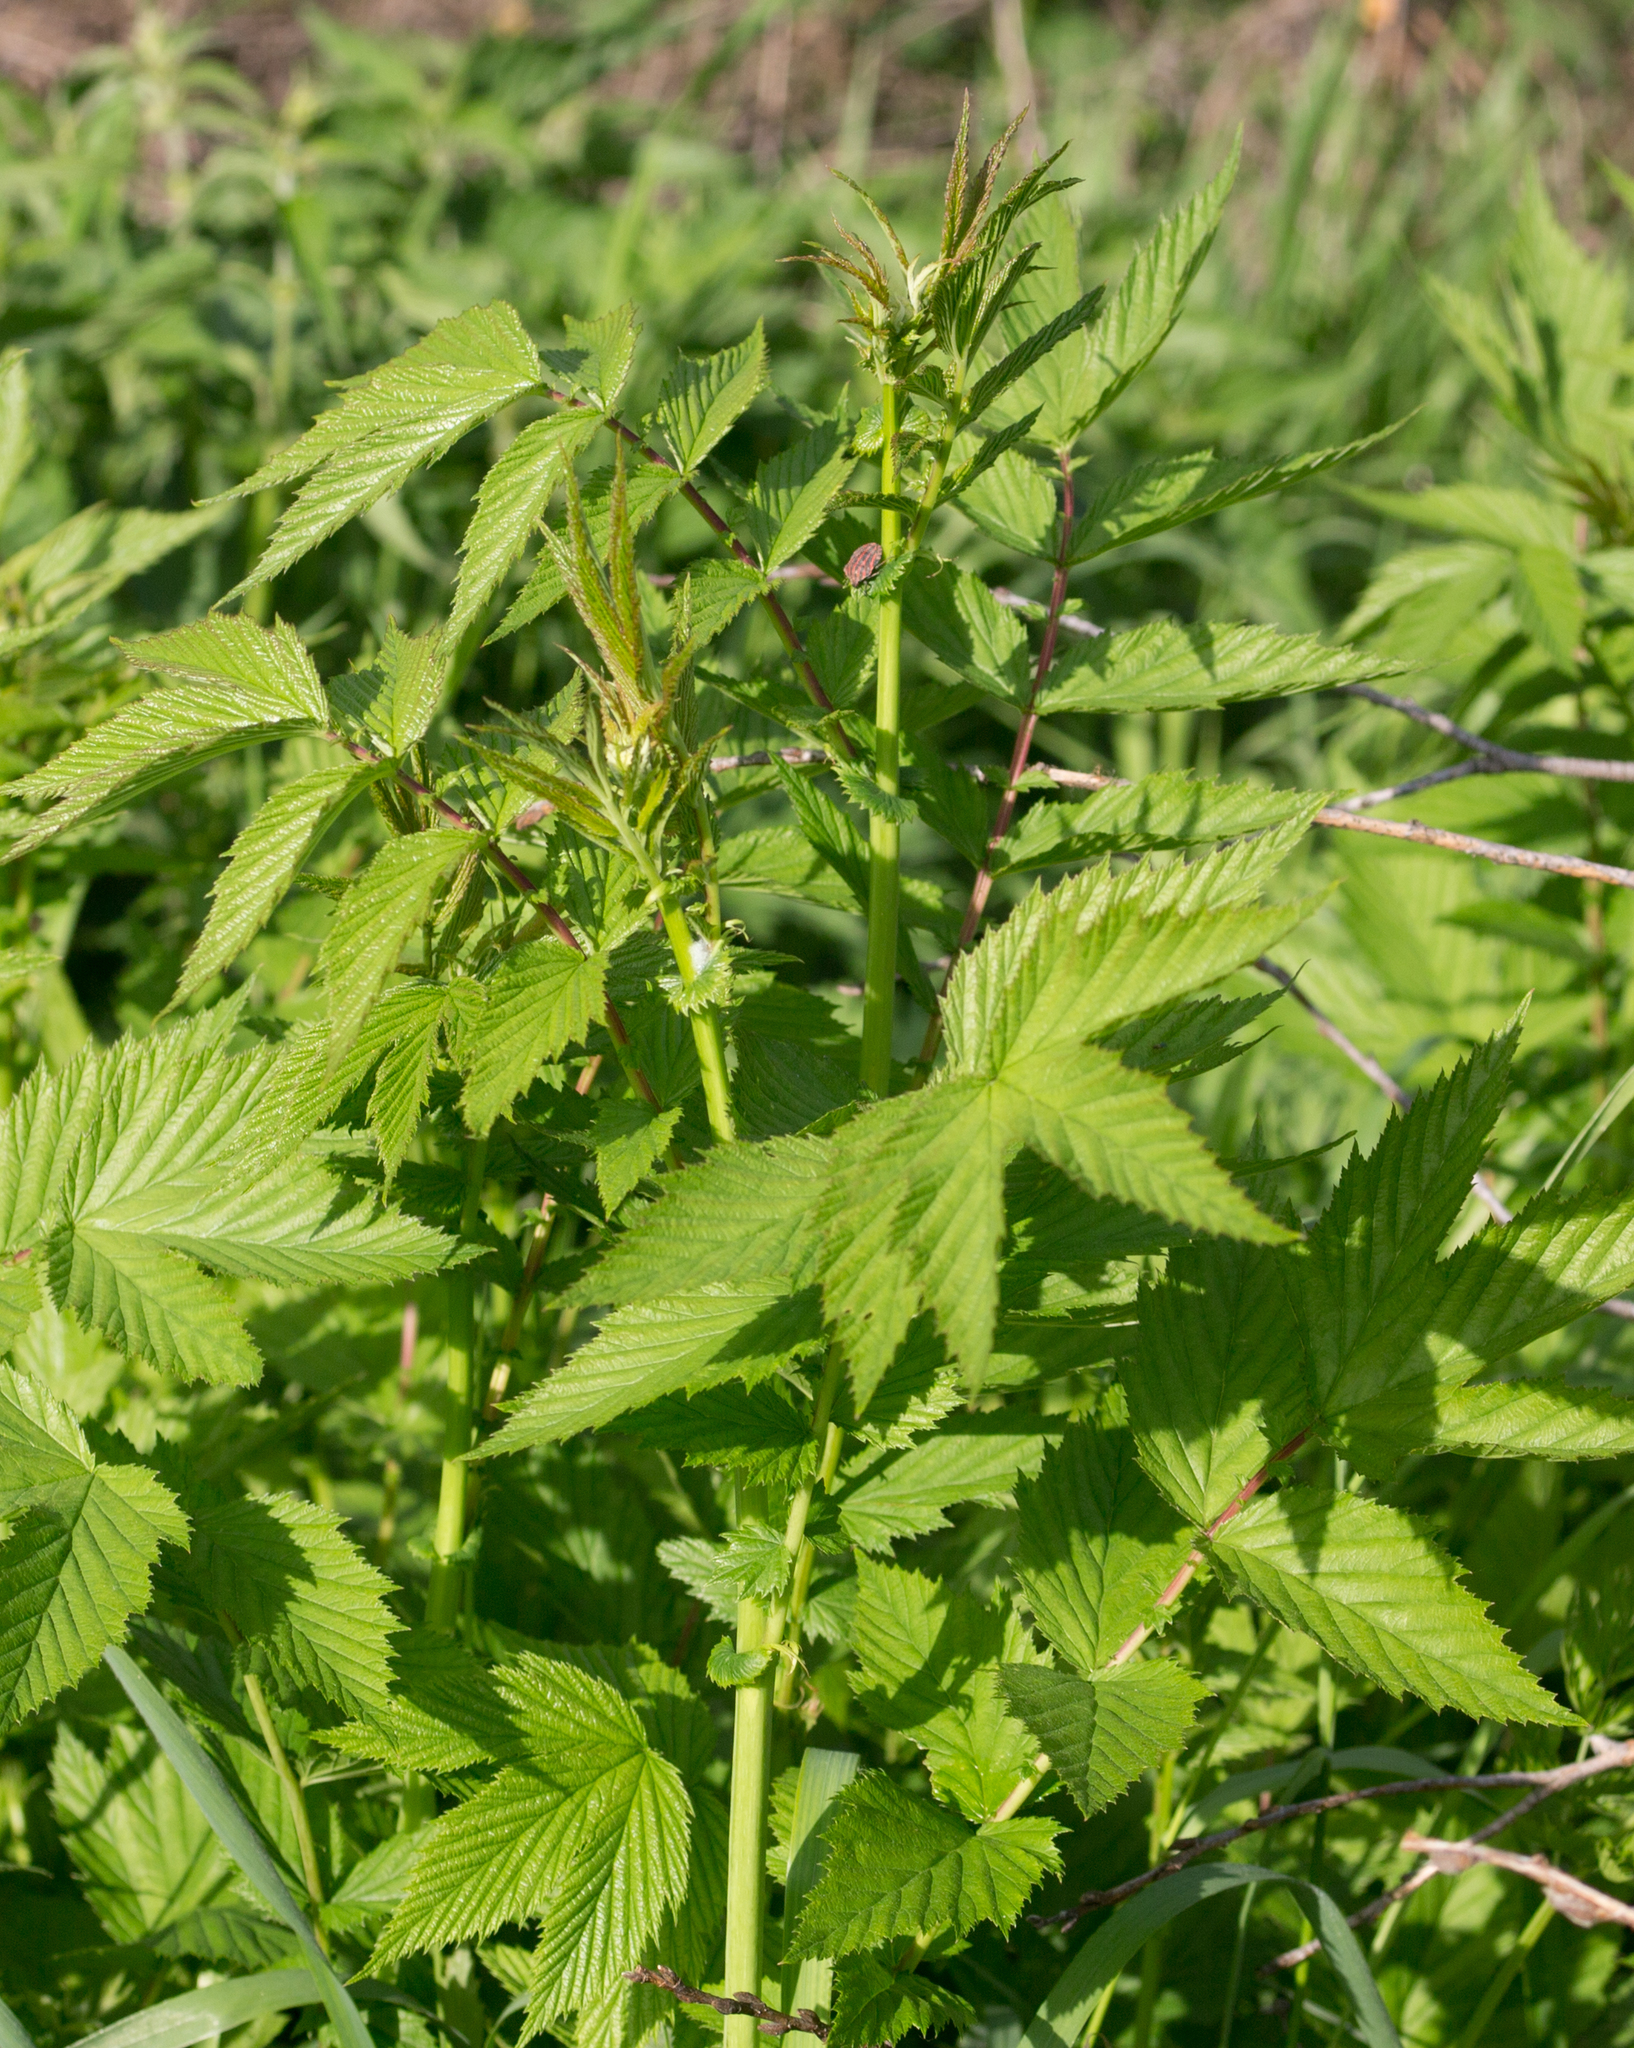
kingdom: Plantae
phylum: Tracheophyta
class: Magnoliopsida
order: Rosales
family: Rosaceae
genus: Filipendula
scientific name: Filipendula ulmaria
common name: Meadowsweet
